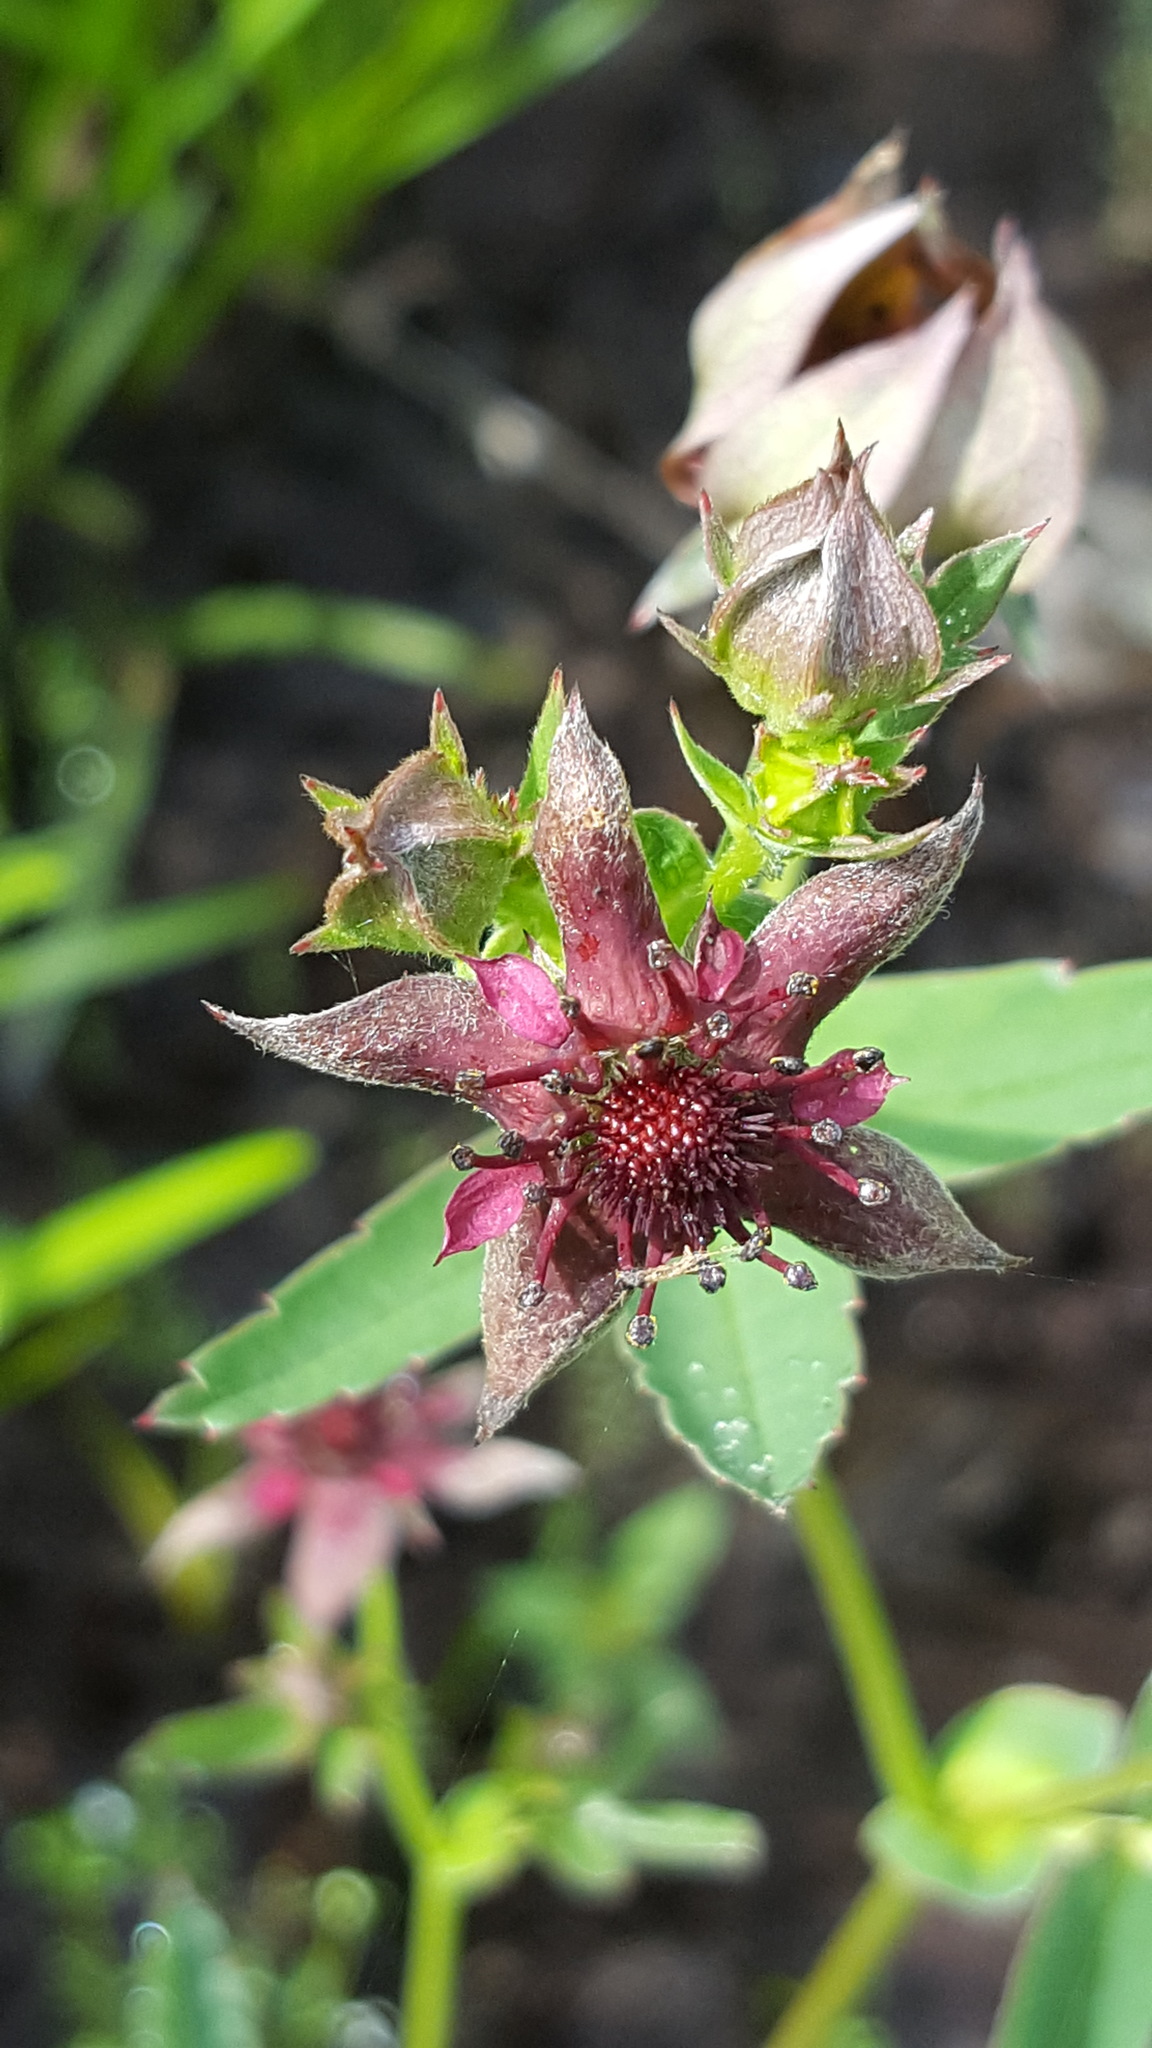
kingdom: Plantae
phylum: Tracheophyta
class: Magnoliopsida
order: Rosales
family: Rosaceae
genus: Comarum
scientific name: Comarum palustre
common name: Marsh cinquefoil
